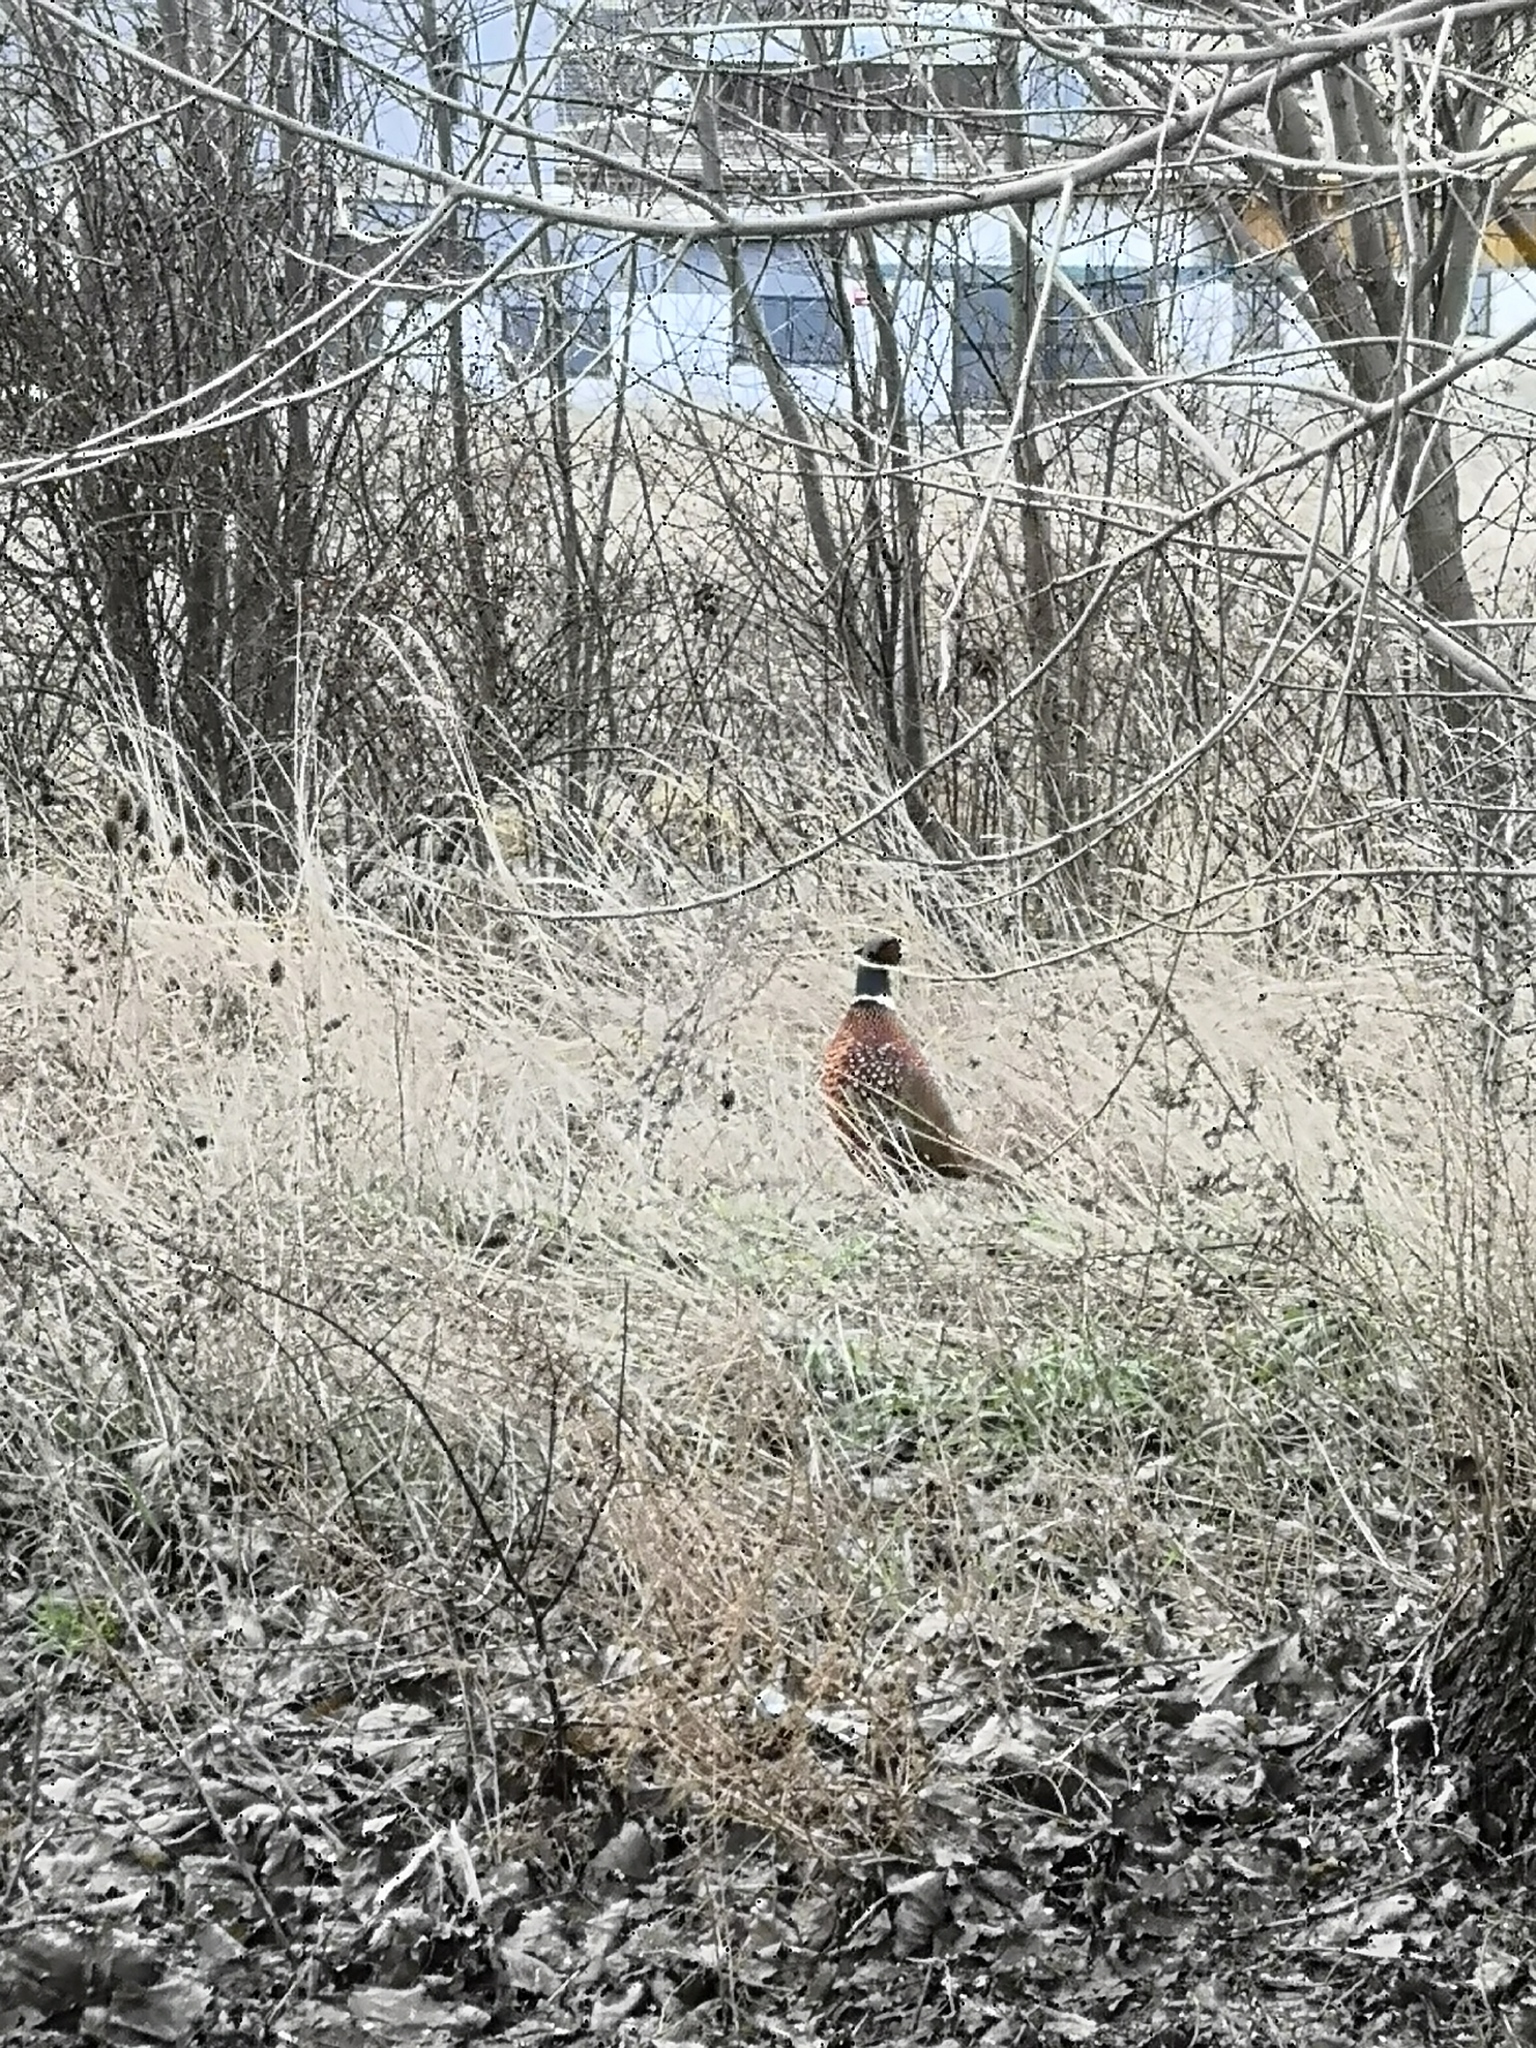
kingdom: Animalia
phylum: Chordata
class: Aves
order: Galliformes
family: Phasianidae
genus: Phasianus
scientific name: Phasianus colchicus
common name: Common pheasant
